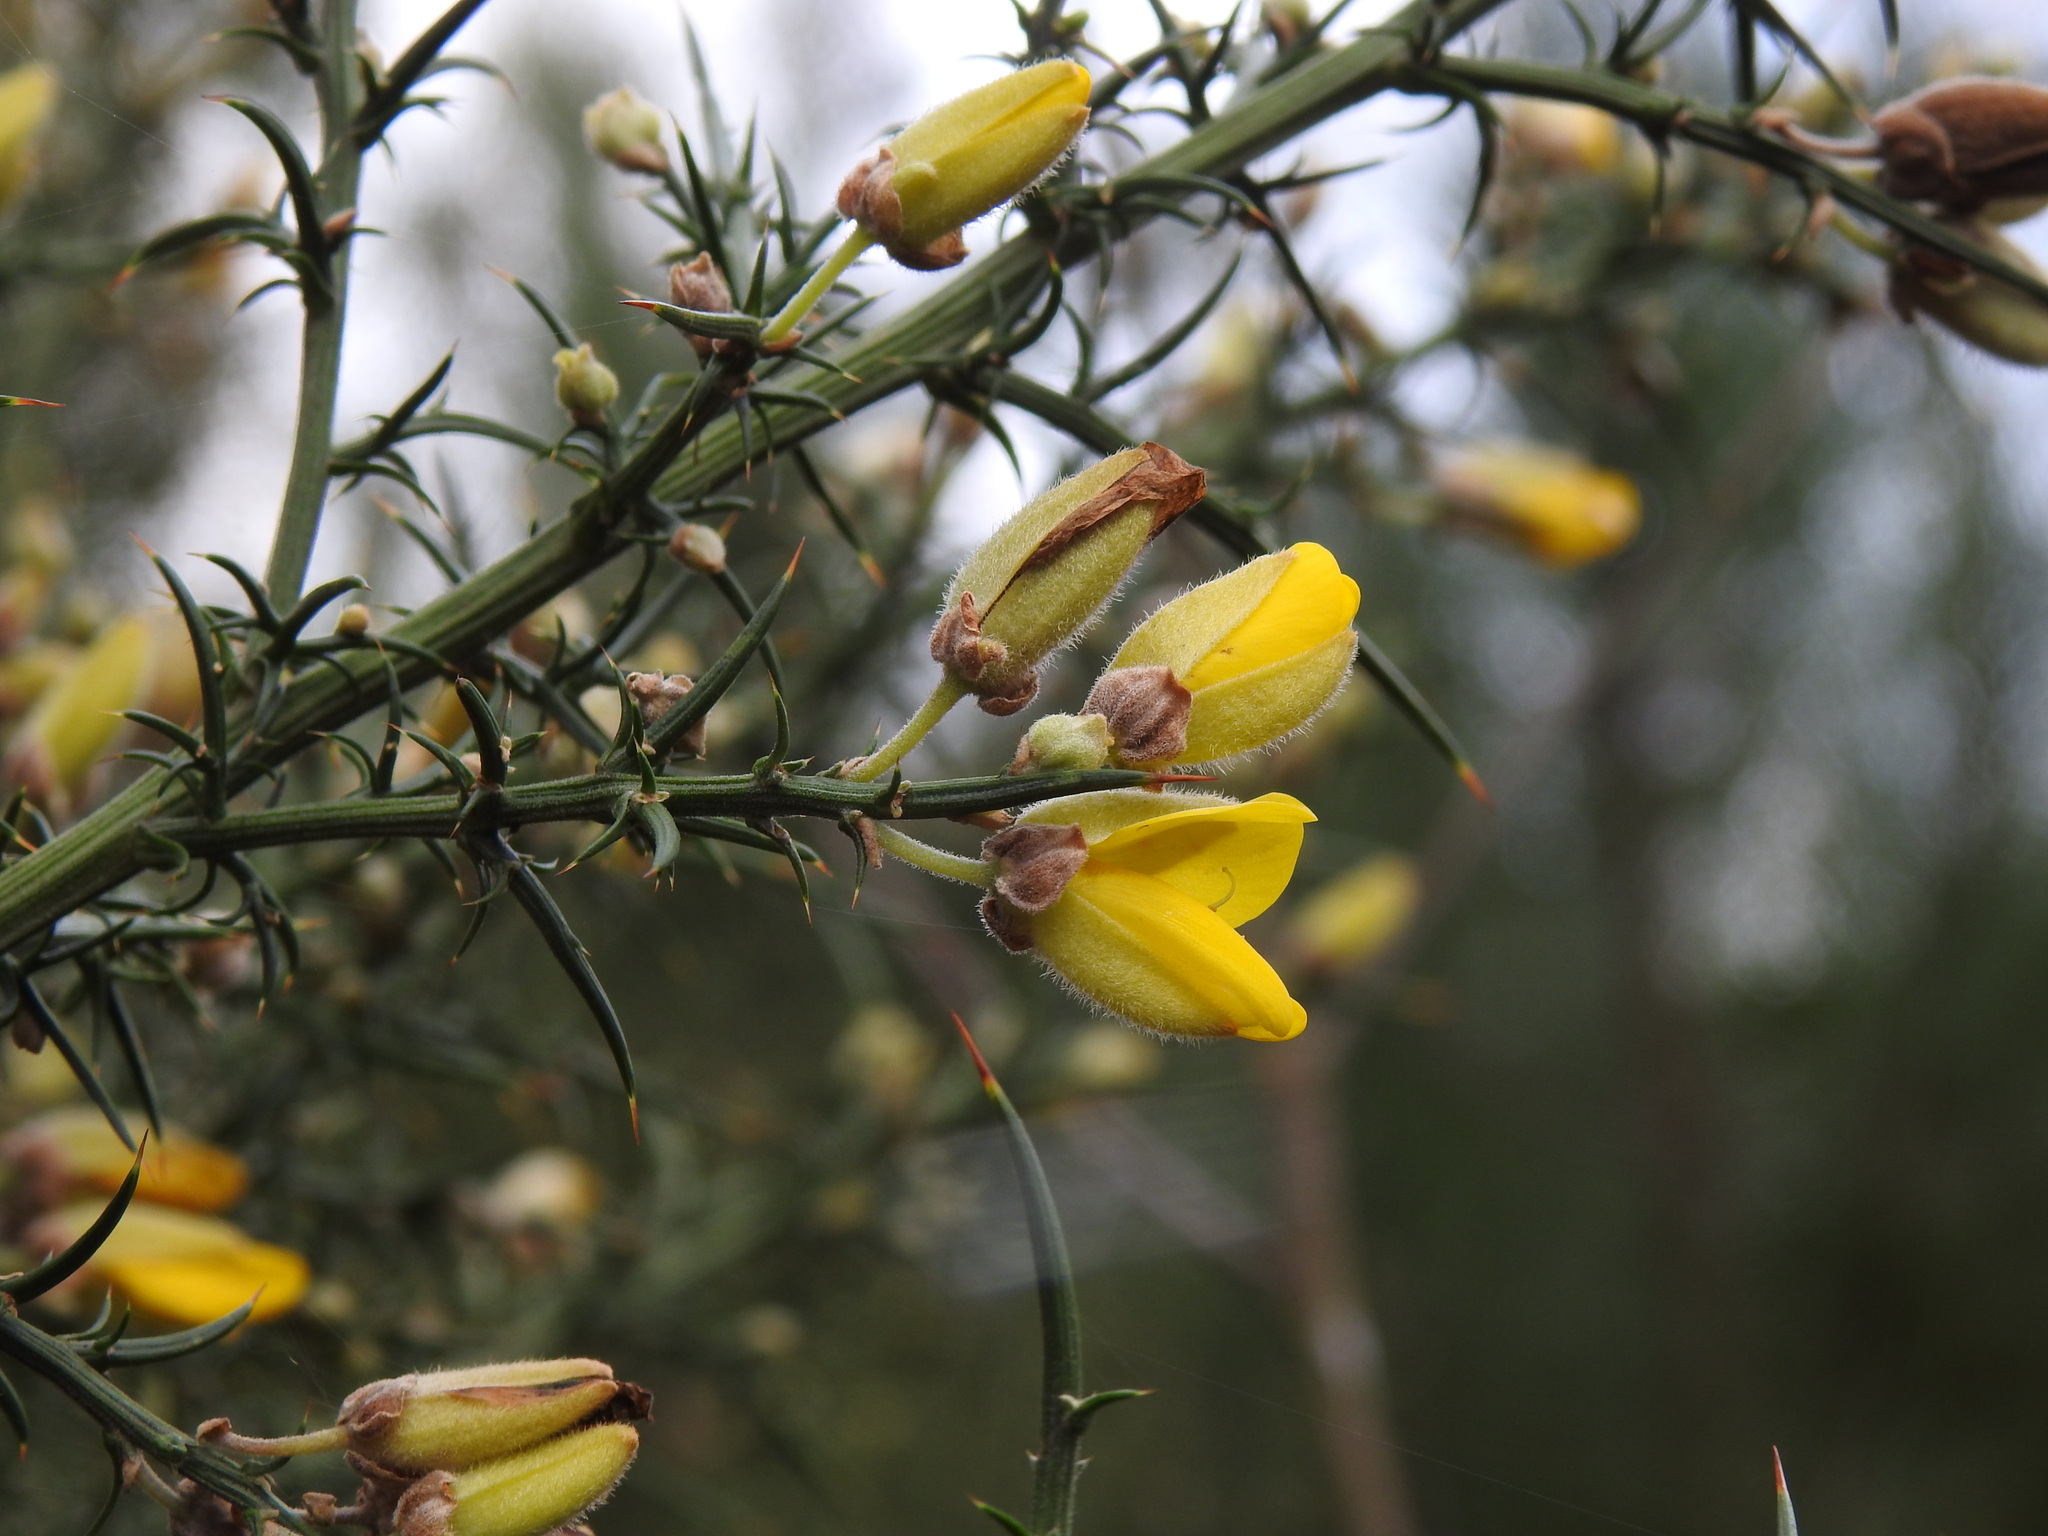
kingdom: Plantae
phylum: Tracheophyta
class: Magnoliopsida
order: Fabales
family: Fabaceae
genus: Ulex
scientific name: Ulex europaeus
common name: Common gorse
